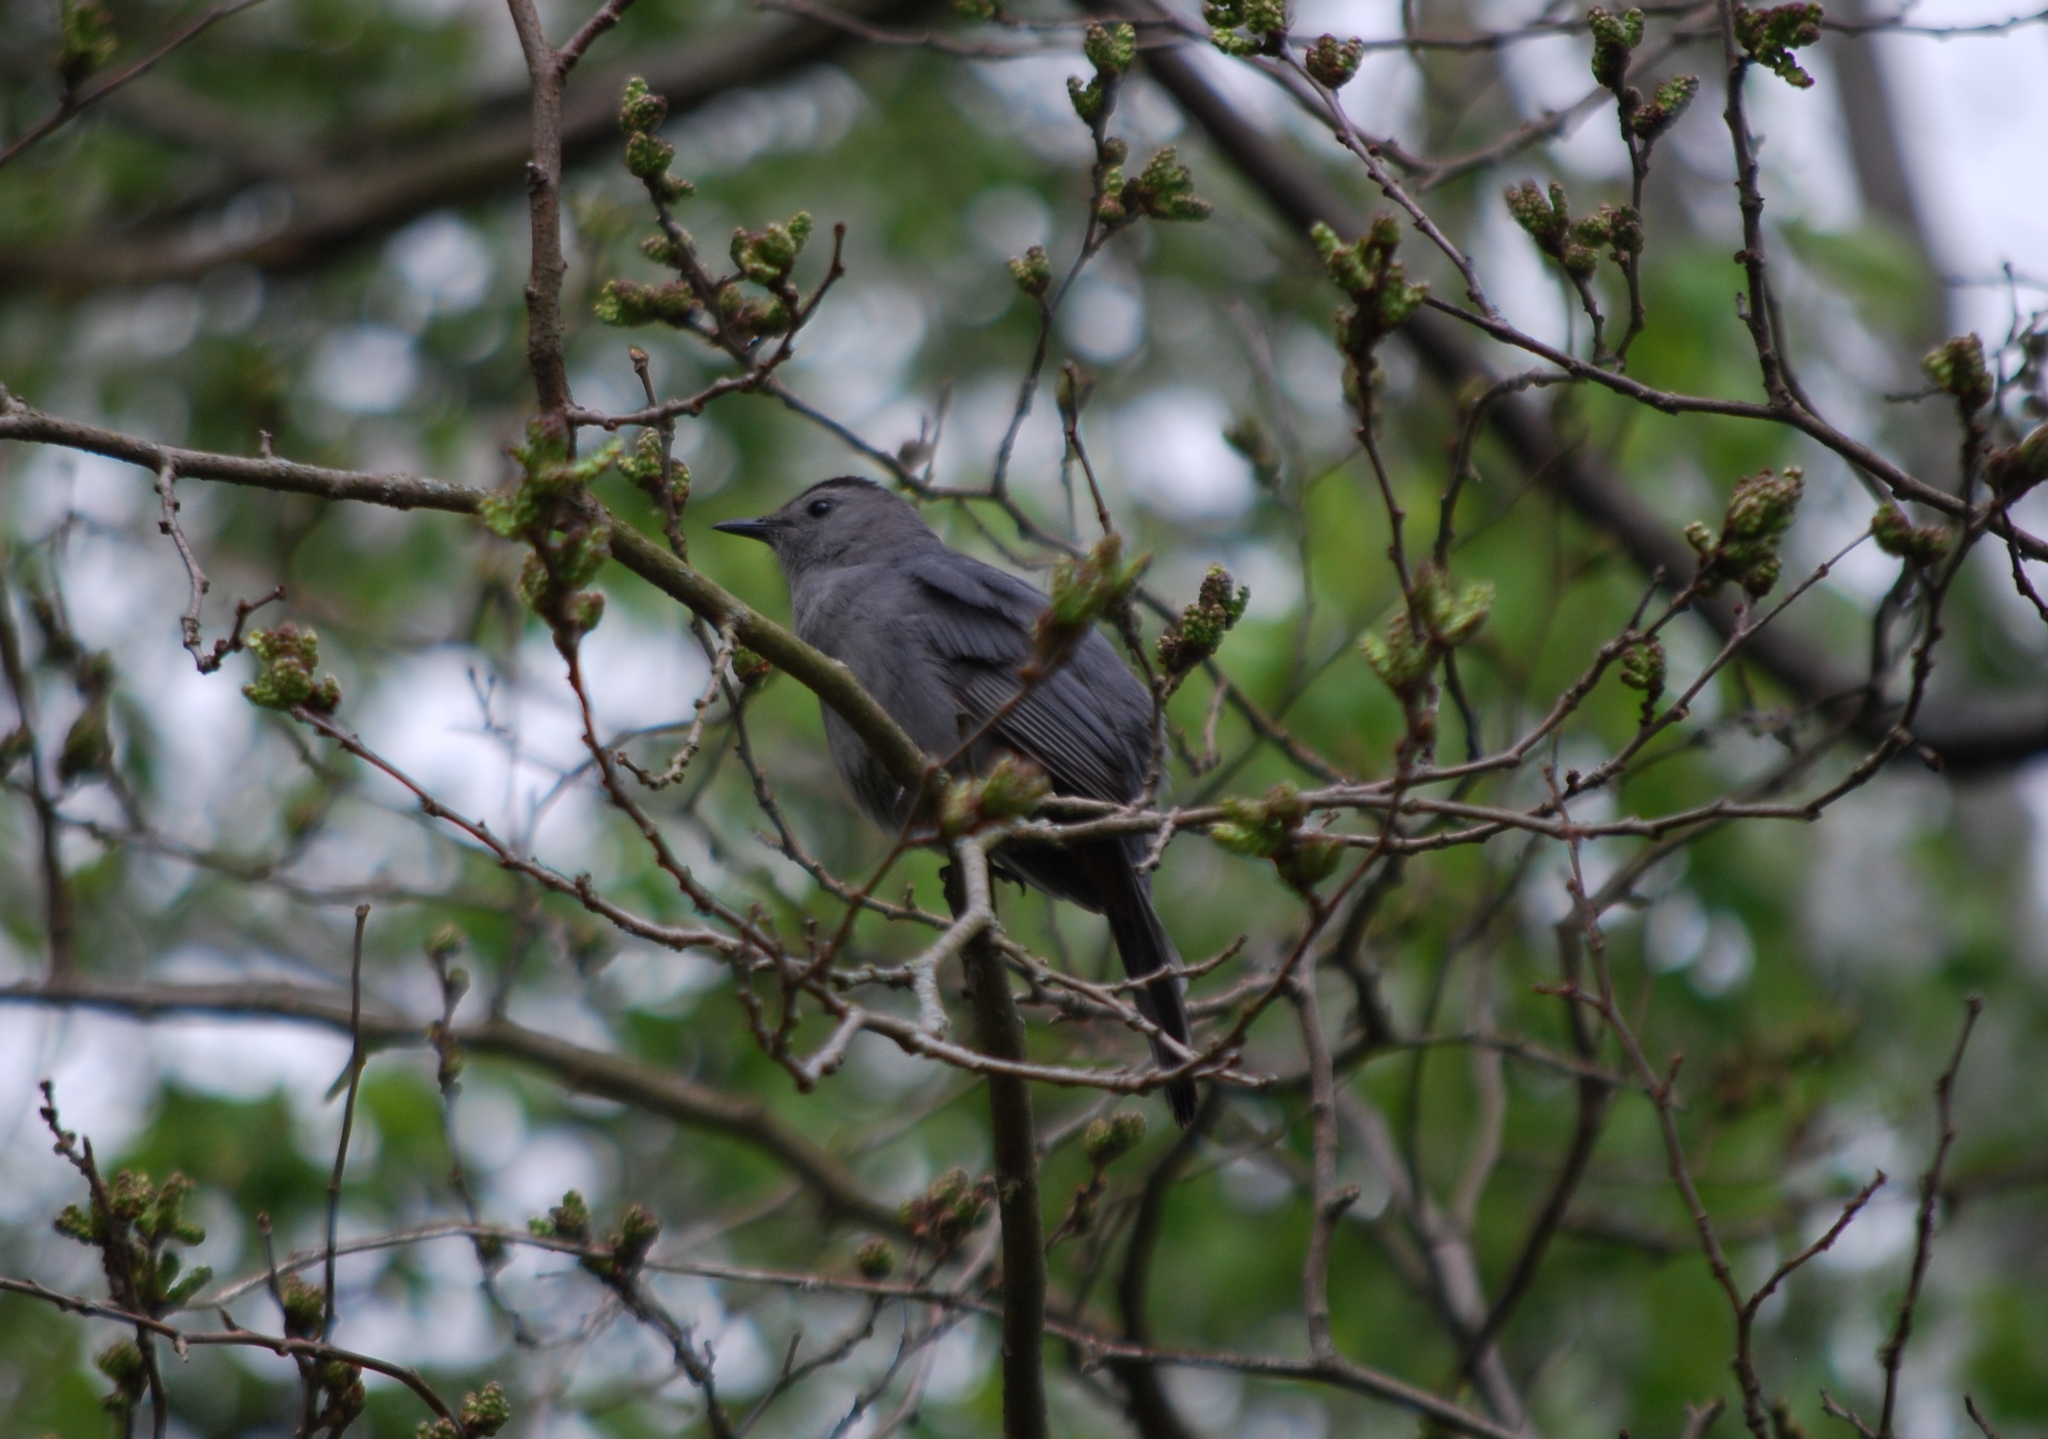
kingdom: Animalia
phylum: Chordata
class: Aves
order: Passeriformes
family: Mimidae
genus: Dumetella
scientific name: Dumetella carolinensis
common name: Gray catbird
